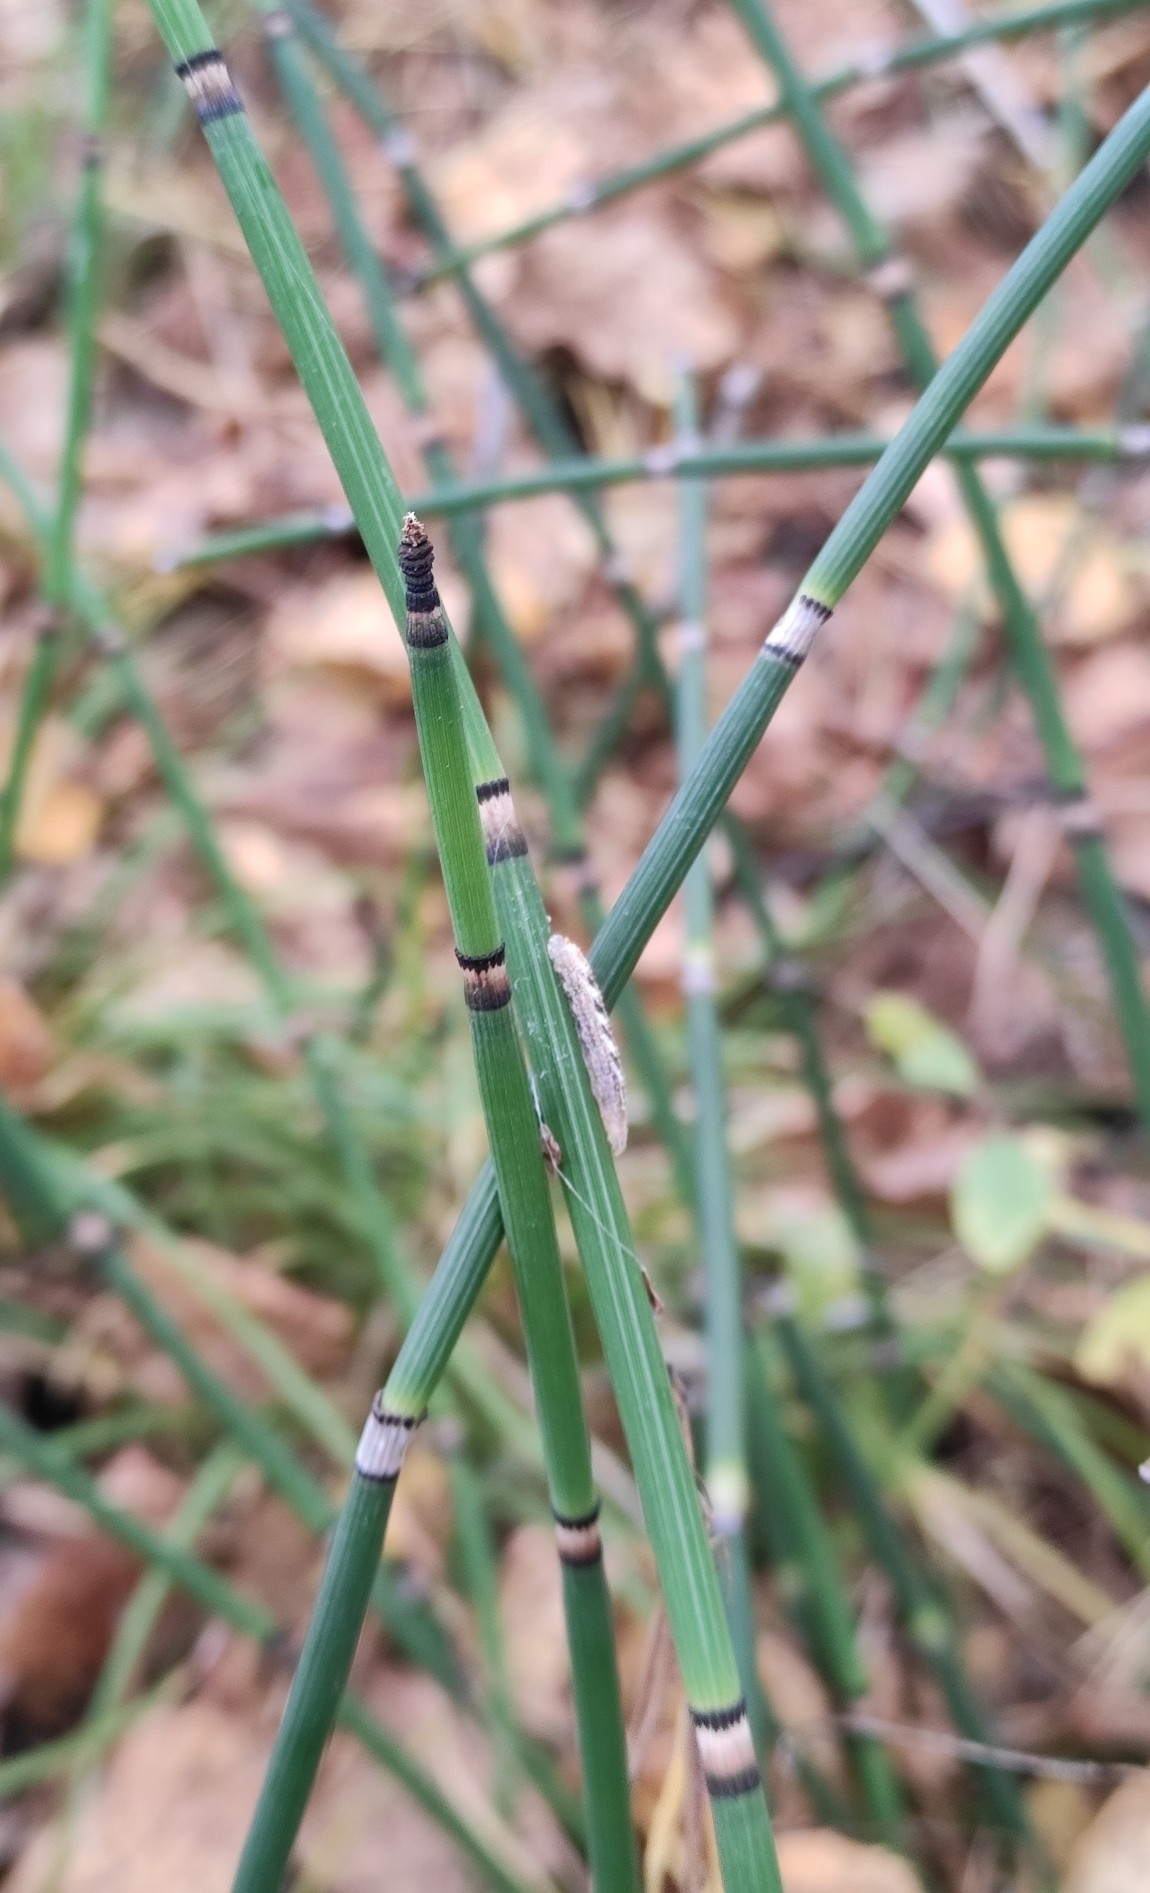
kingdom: Plantae
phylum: Tracheophyta
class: Polypodiopsida
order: Equisetales
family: Equisetaceae
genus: Equisetum
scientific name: Equisetum hyemale
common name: Rough horsetail
